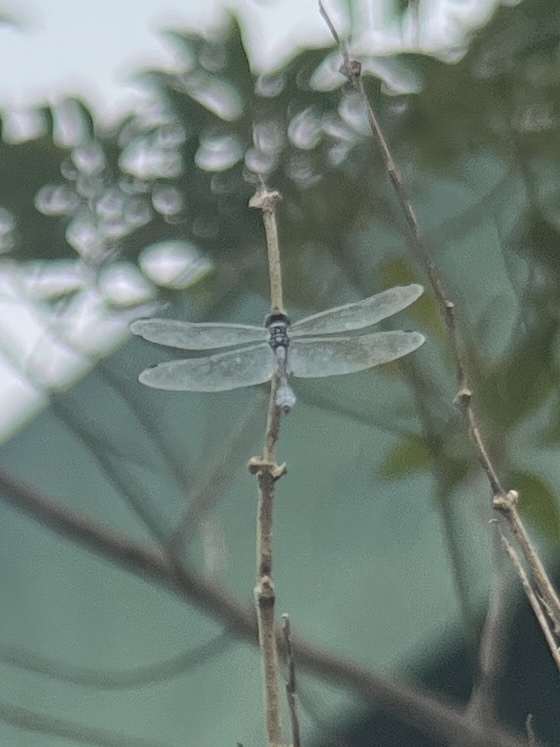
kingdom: Animalia
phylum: Arthropoda
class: Insecta
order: Odonata
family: Libellulidae
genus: Scapanea
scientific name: Scapanea frontalis
